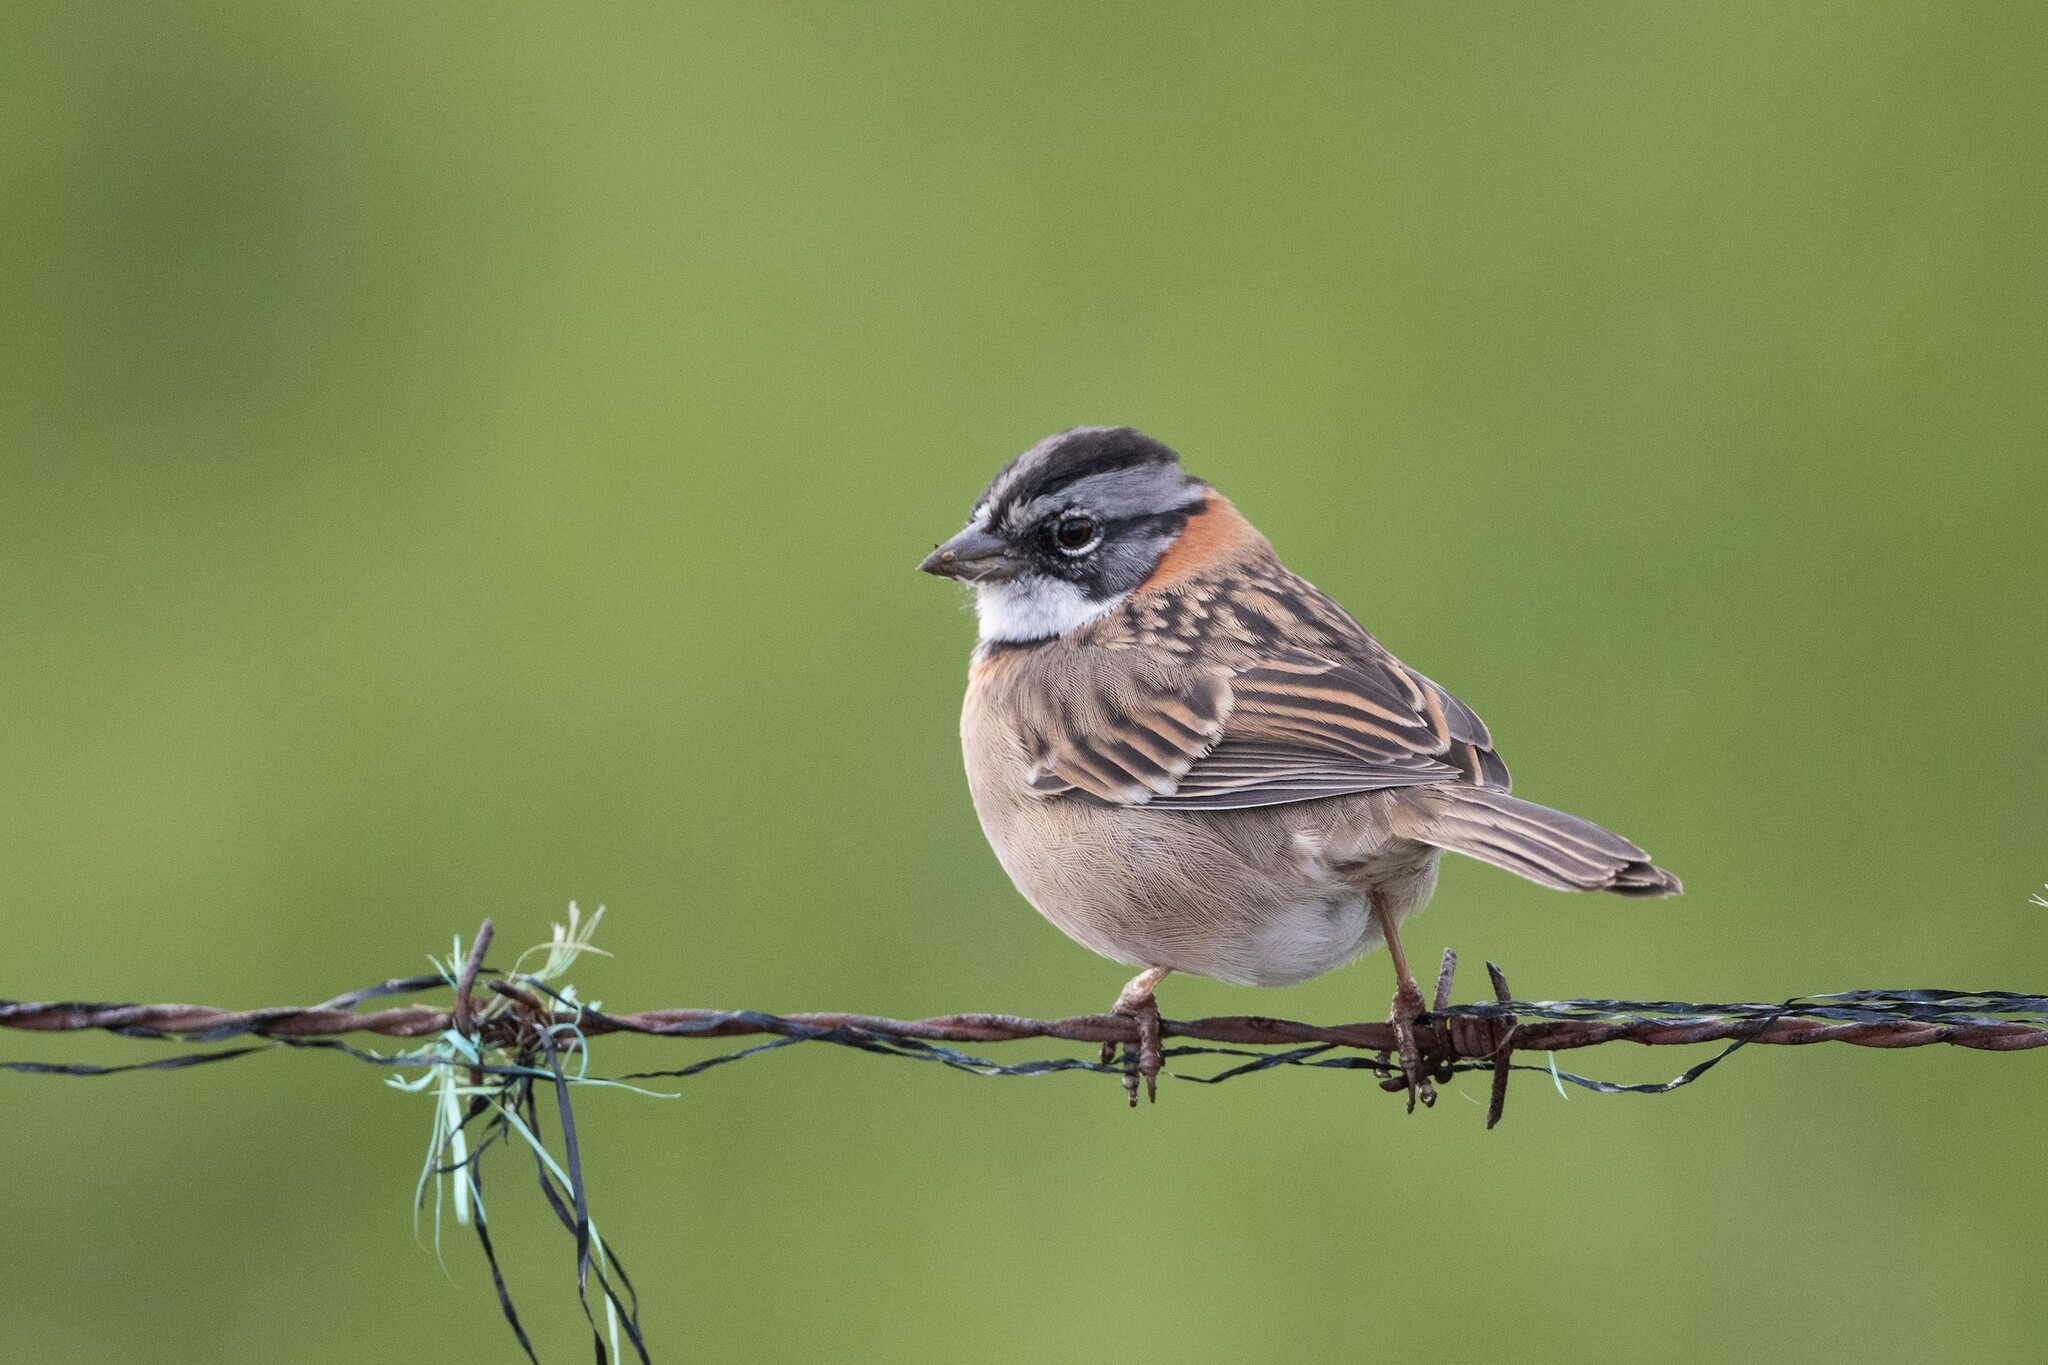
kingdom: Animalia
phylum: Chordata
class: Aves
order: Passeriformes
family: Passerellidae
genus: Zonotrichia
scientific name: Zonotrichia capensis
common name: Rufous-collared sparrow
